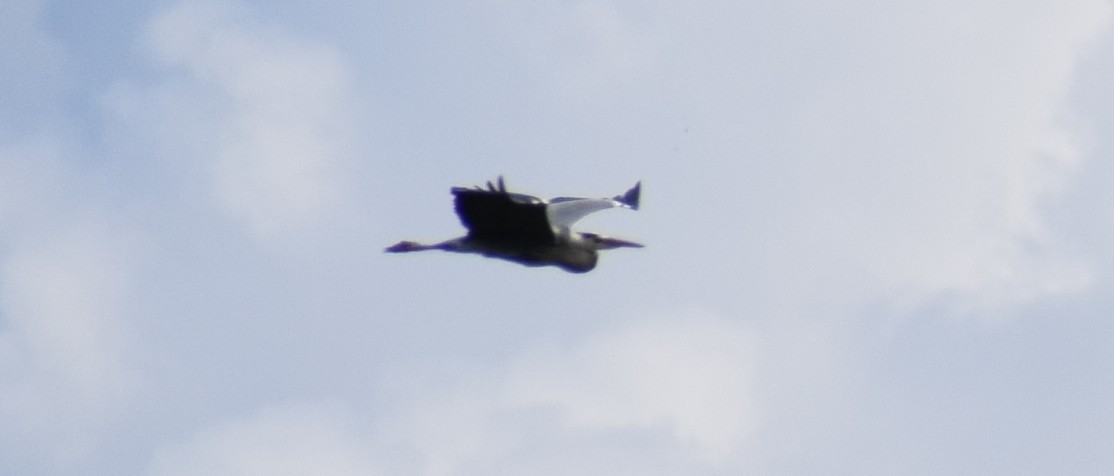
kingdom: Animalia
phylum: Chordata
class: Aves
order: Pelecaniformes
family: Ardeidae
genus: Ardea
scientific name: Ardea cinerea
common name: Grey heron
